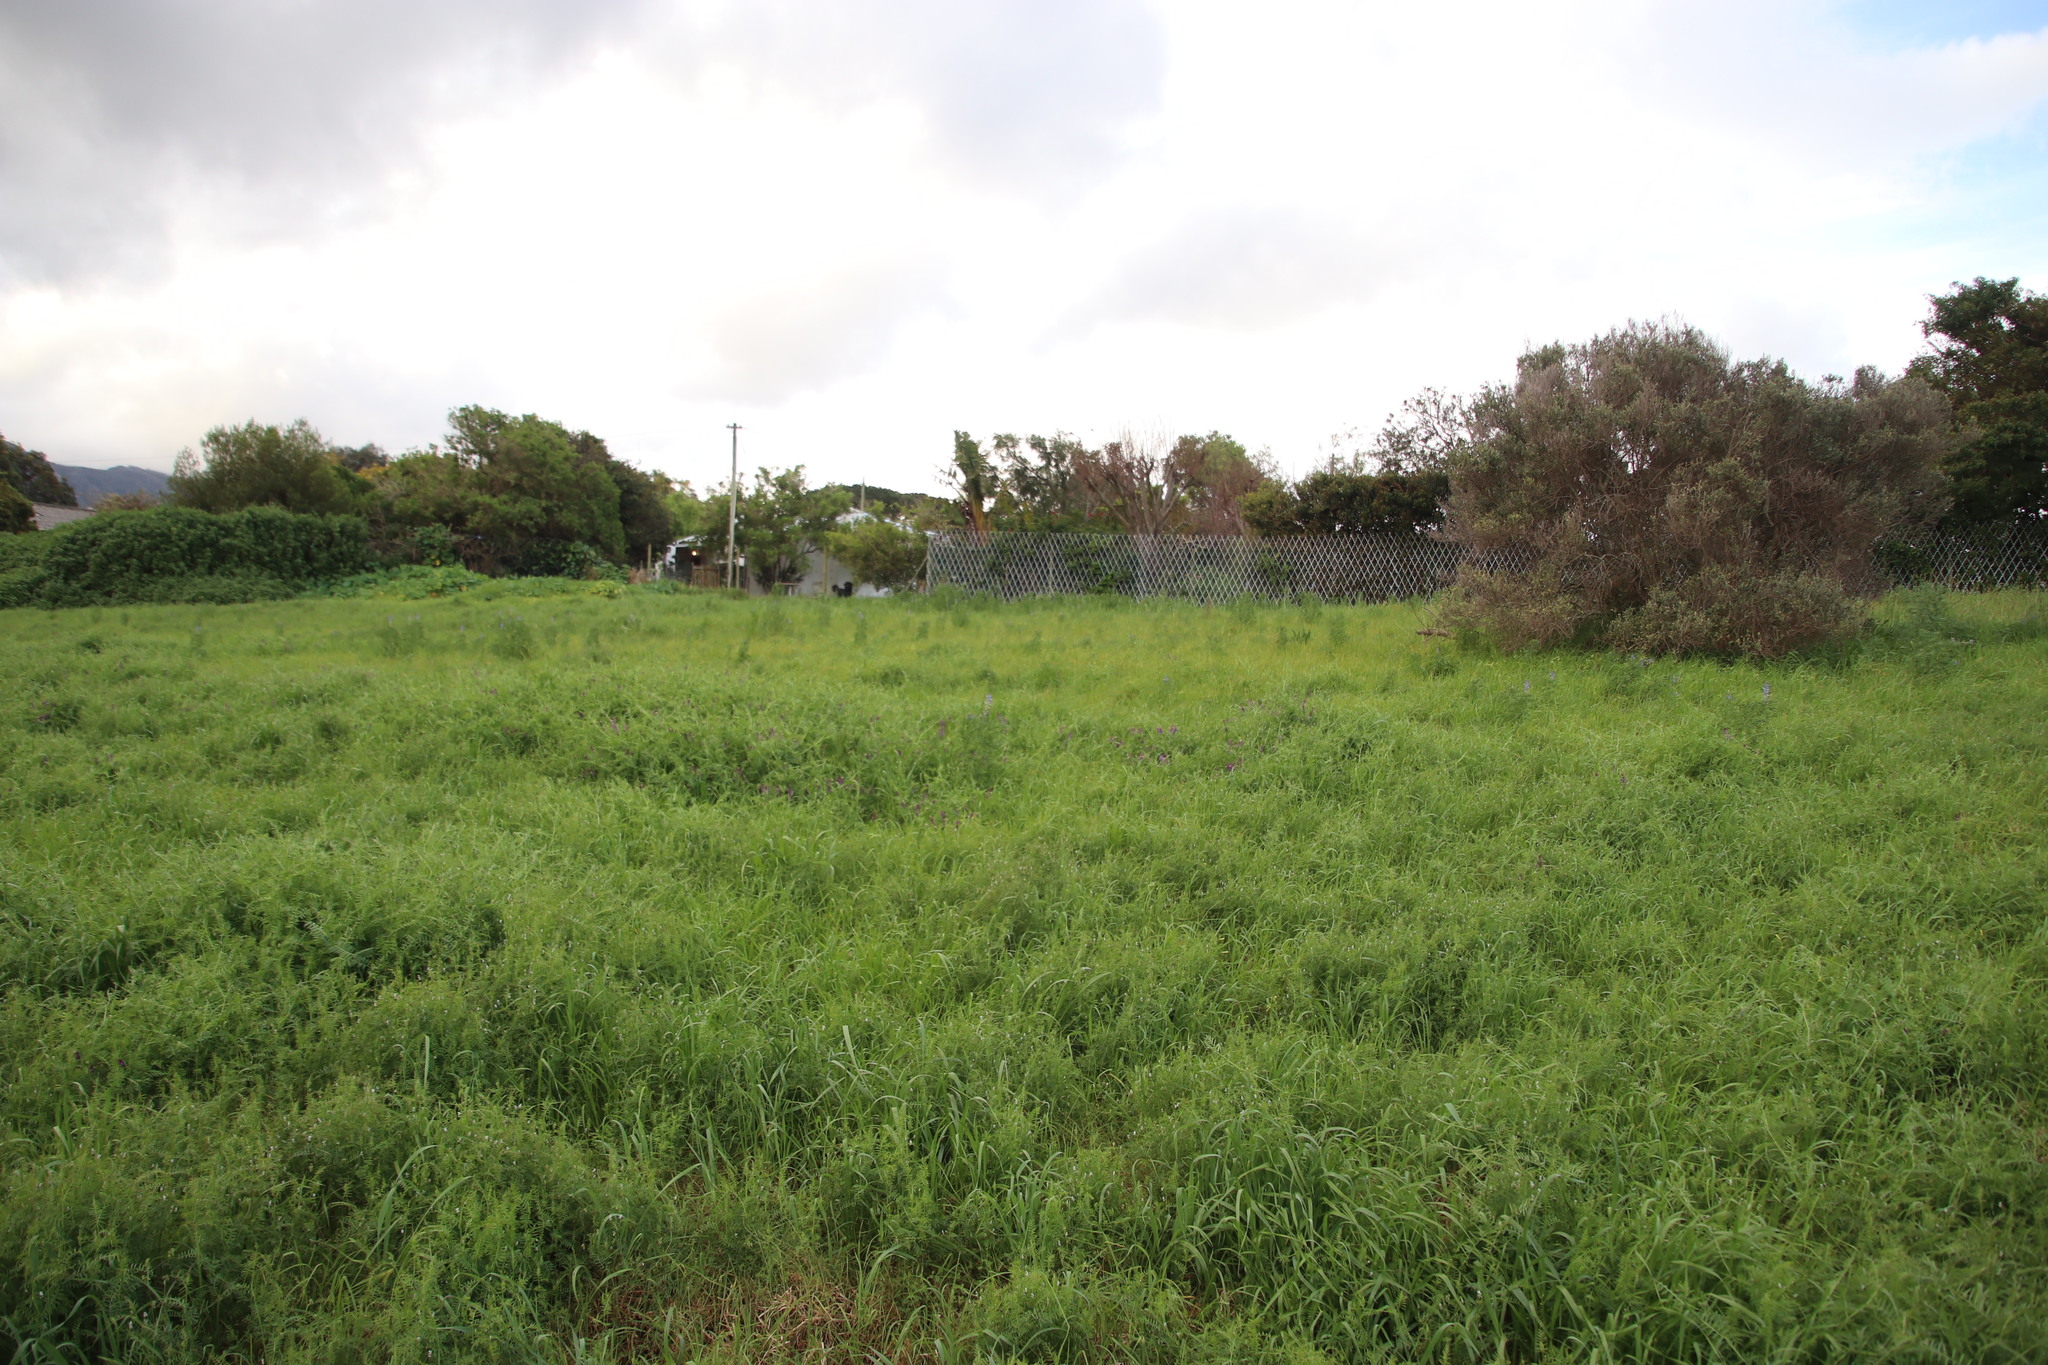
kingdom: Plantae
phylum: Tracheophyta
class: Magnoliopsida
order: Fabales
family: Fabaceae
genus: Lupinus
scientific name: Lupinus angustifolius
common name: Narrow-leaved lupin
